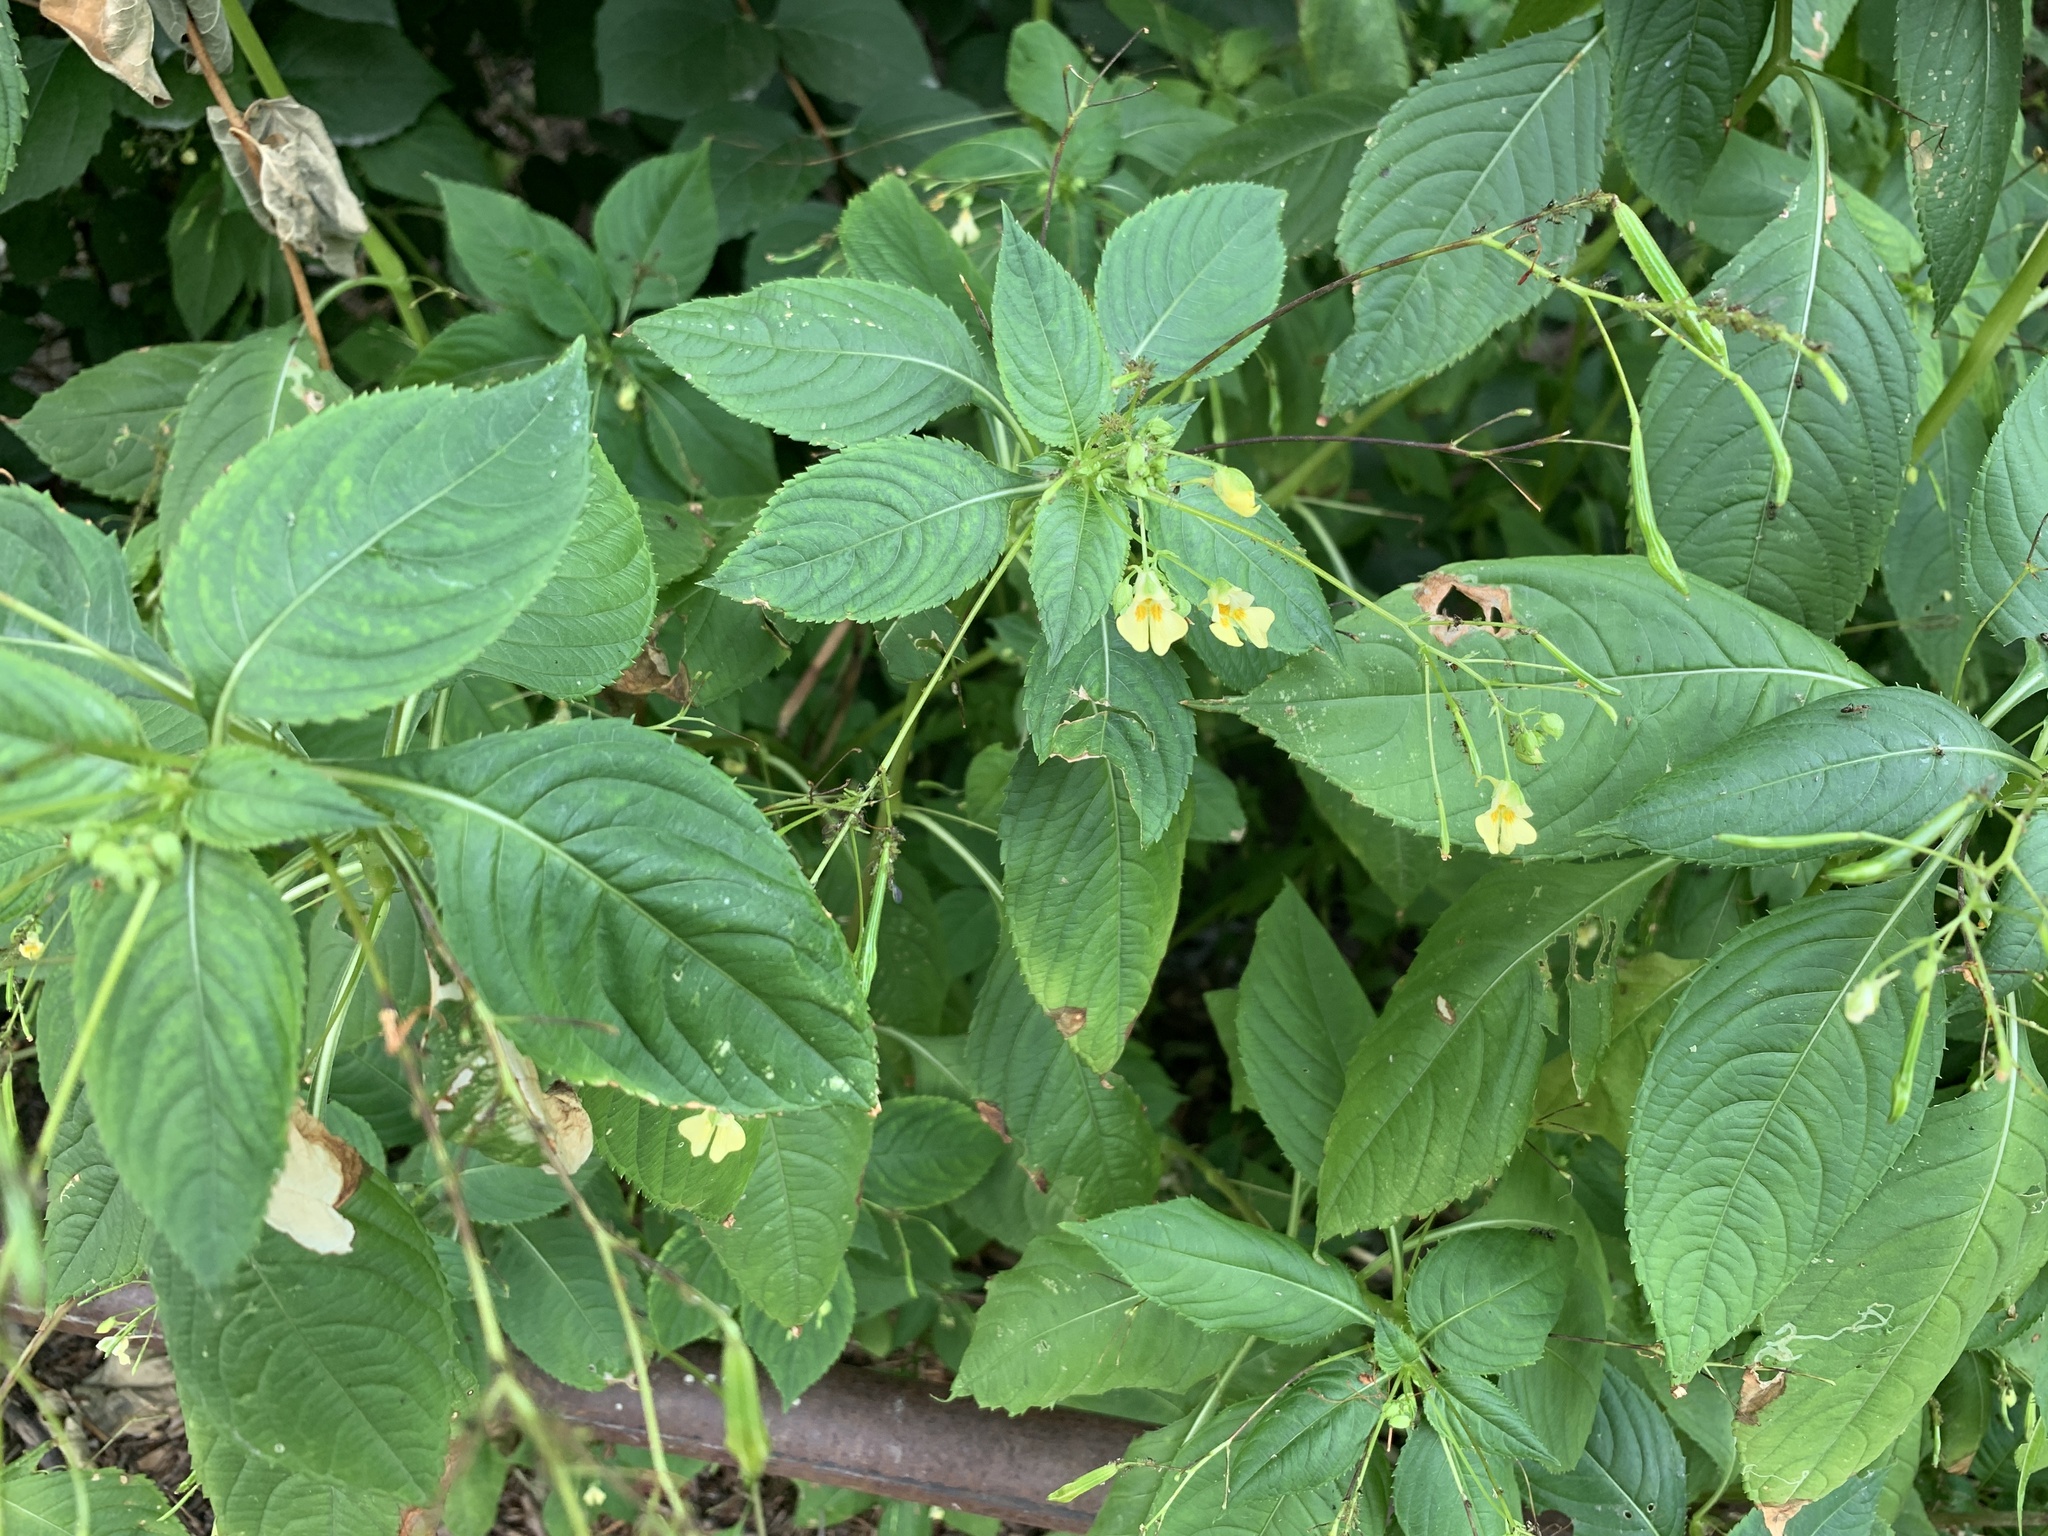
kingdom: Plantae
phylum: Tracheophyta
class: Magnoliopsida
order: Ericales
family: Balsaminaceae
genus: Impatiens
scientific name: Impatiens parviflora
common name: Small balsam
